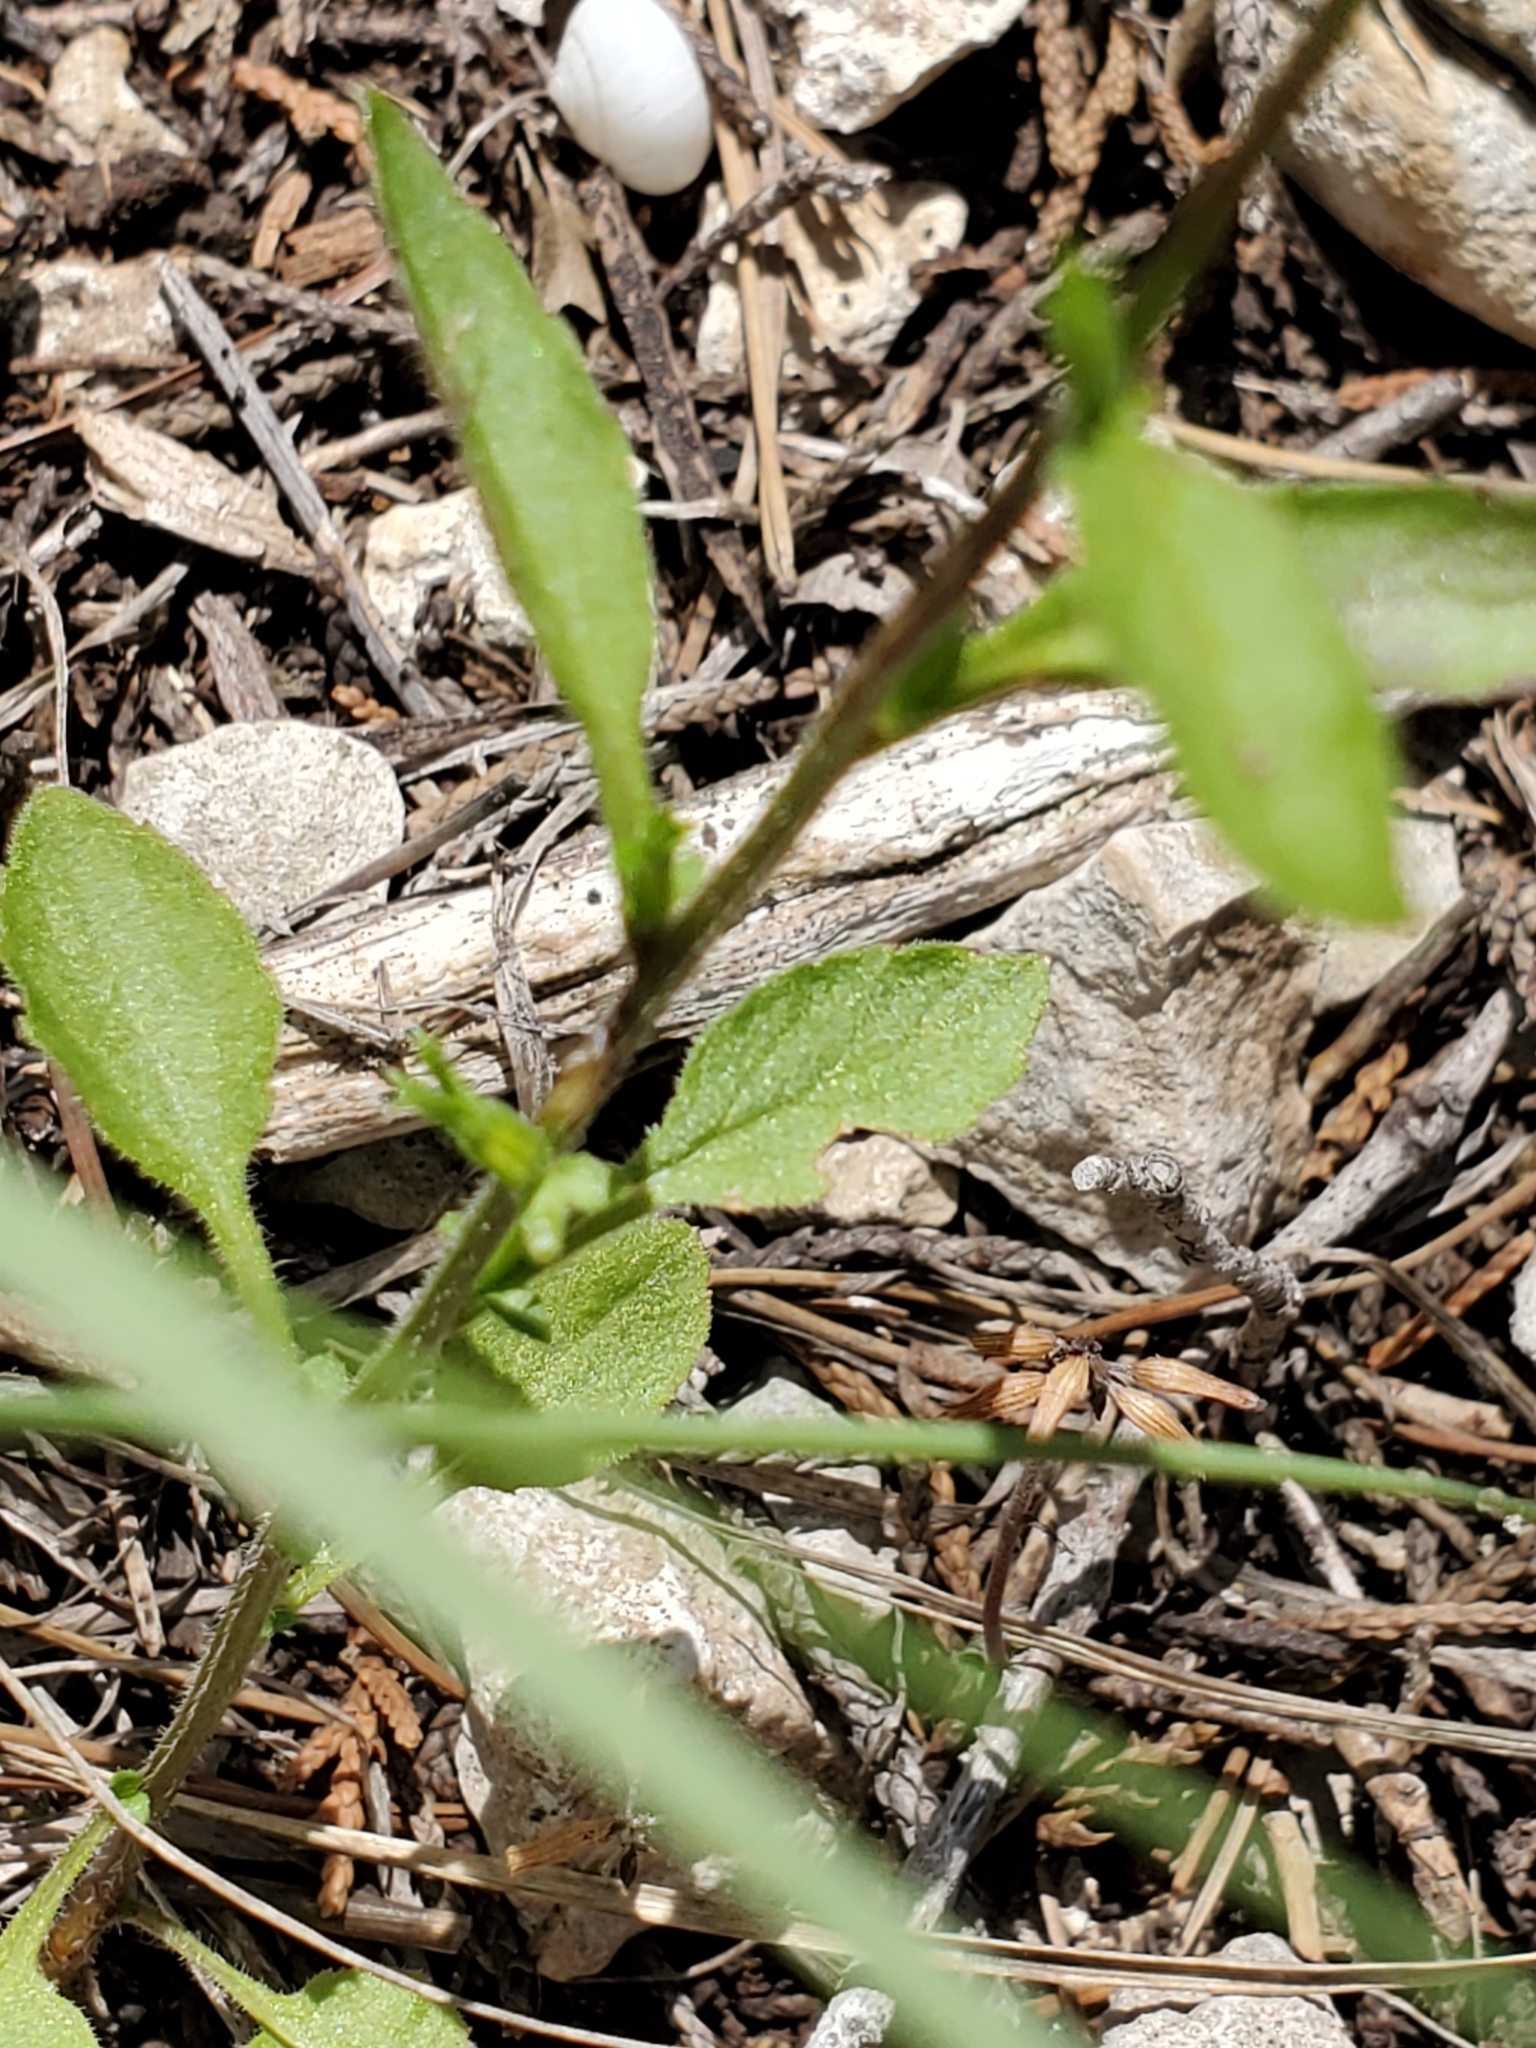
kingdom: Plantae
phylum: Tracheophyta
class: Magnoliopsida
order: Asterales
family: Campanulaceae
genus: Triodanis
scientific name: Triodanis coloradoensis
